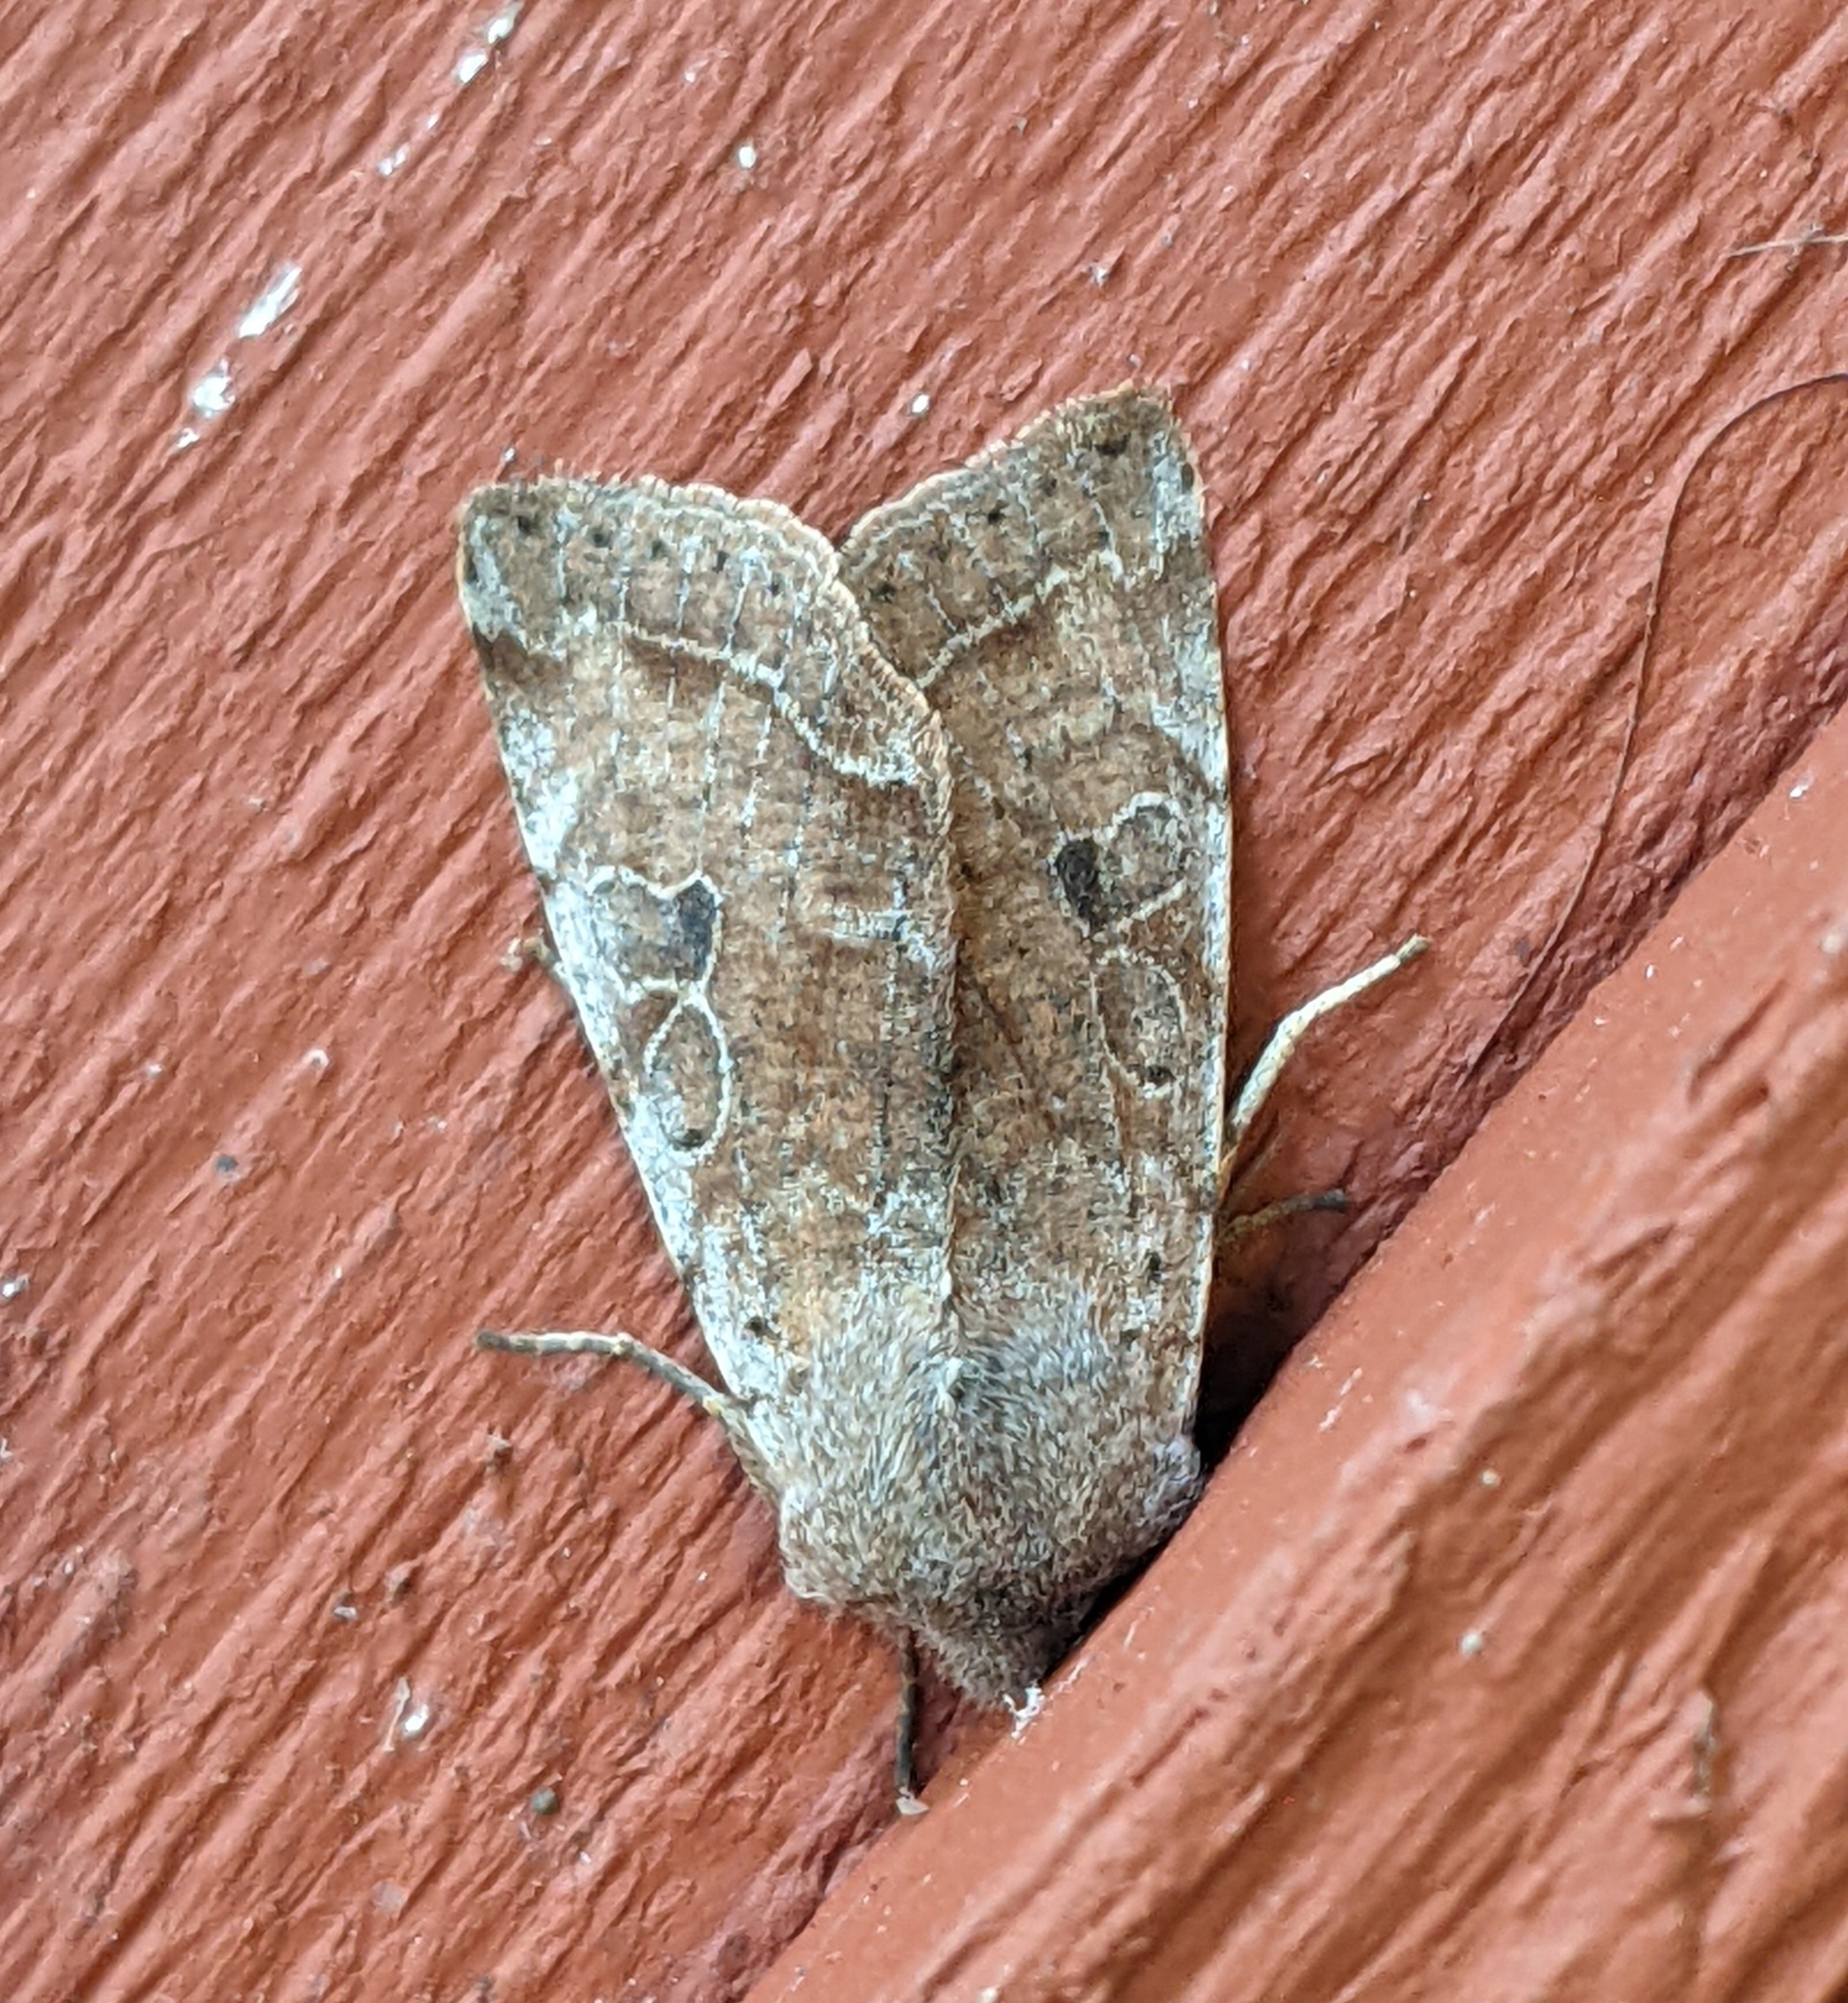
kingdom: Animalia
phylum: Arthropoda
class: Insecta
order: Lepidoptera
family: Noctuidae
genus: Orthosia
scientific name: Orthosia hibisci
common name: Green fruitworm
